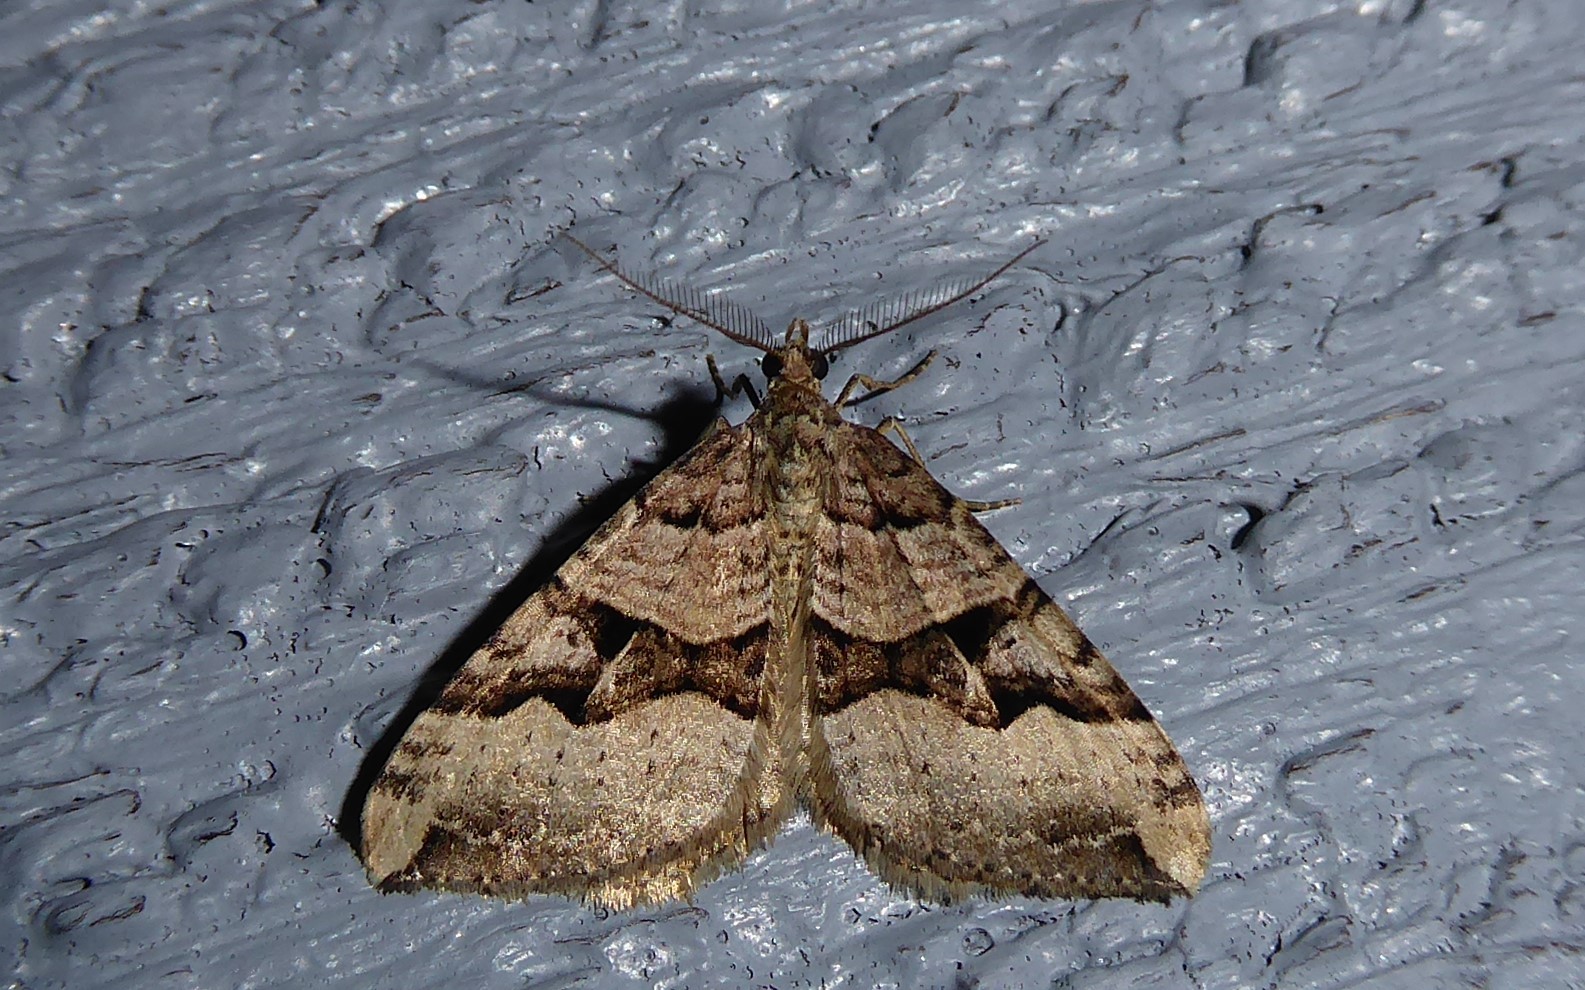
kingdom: Animalia
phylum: Arthropoda
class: Insecta
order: Lepidoptera
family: Geometridae
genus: Xanthorhoe
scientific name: Xanthorhoe semifissata
